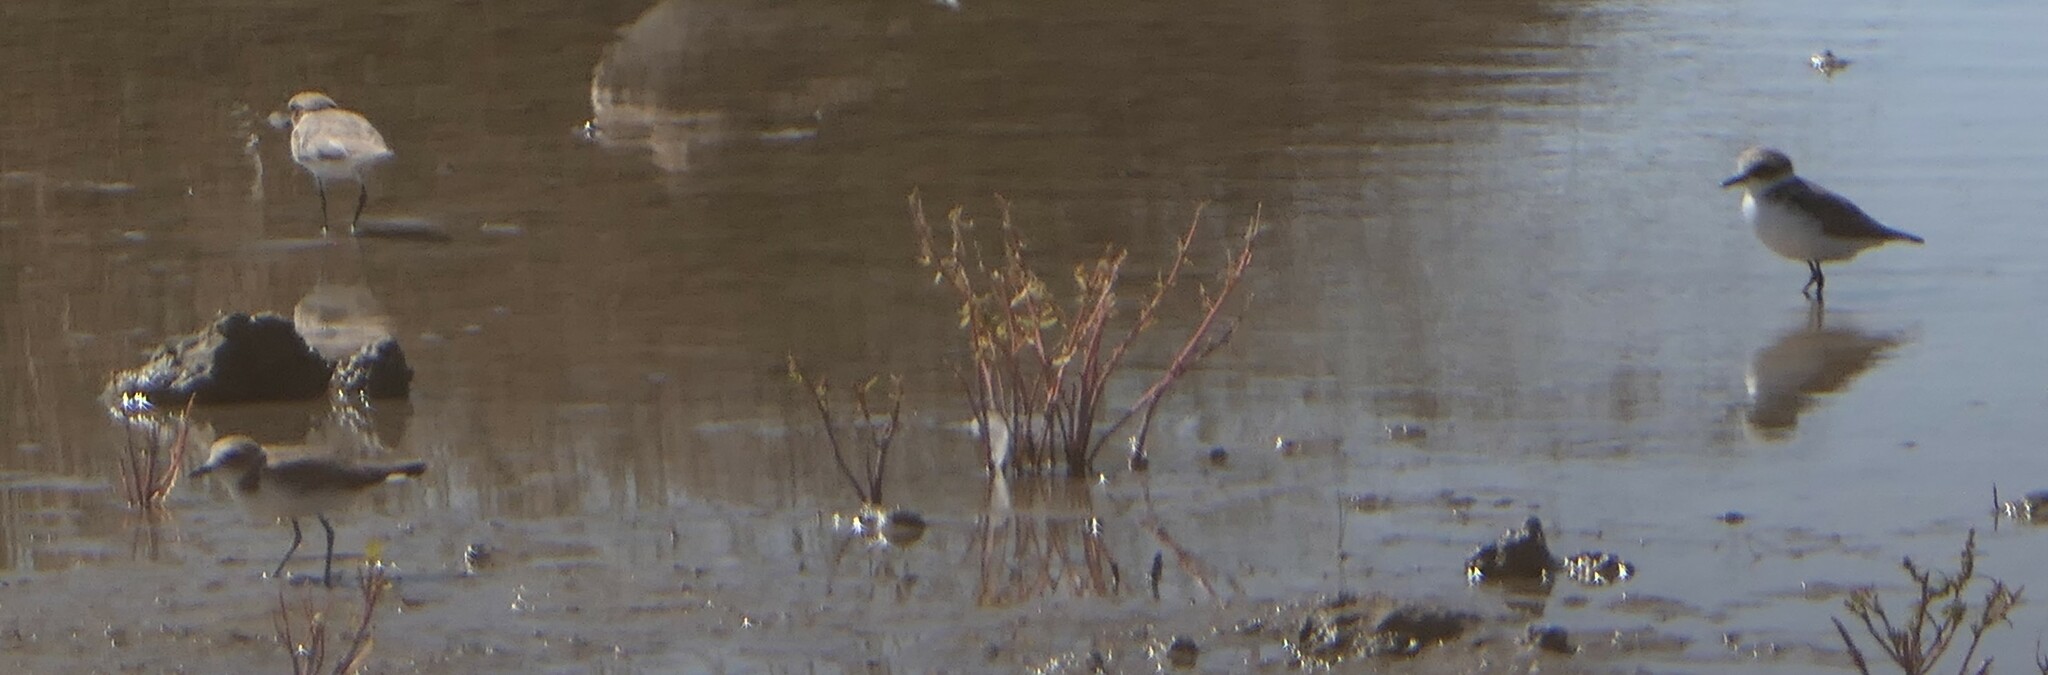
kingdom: Animalia
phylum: Chordata
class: Aves
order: Charadriiformes
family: Charadriidae
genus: Charadrius
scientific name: Charadrius alexandrinus
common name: Kentish plover
